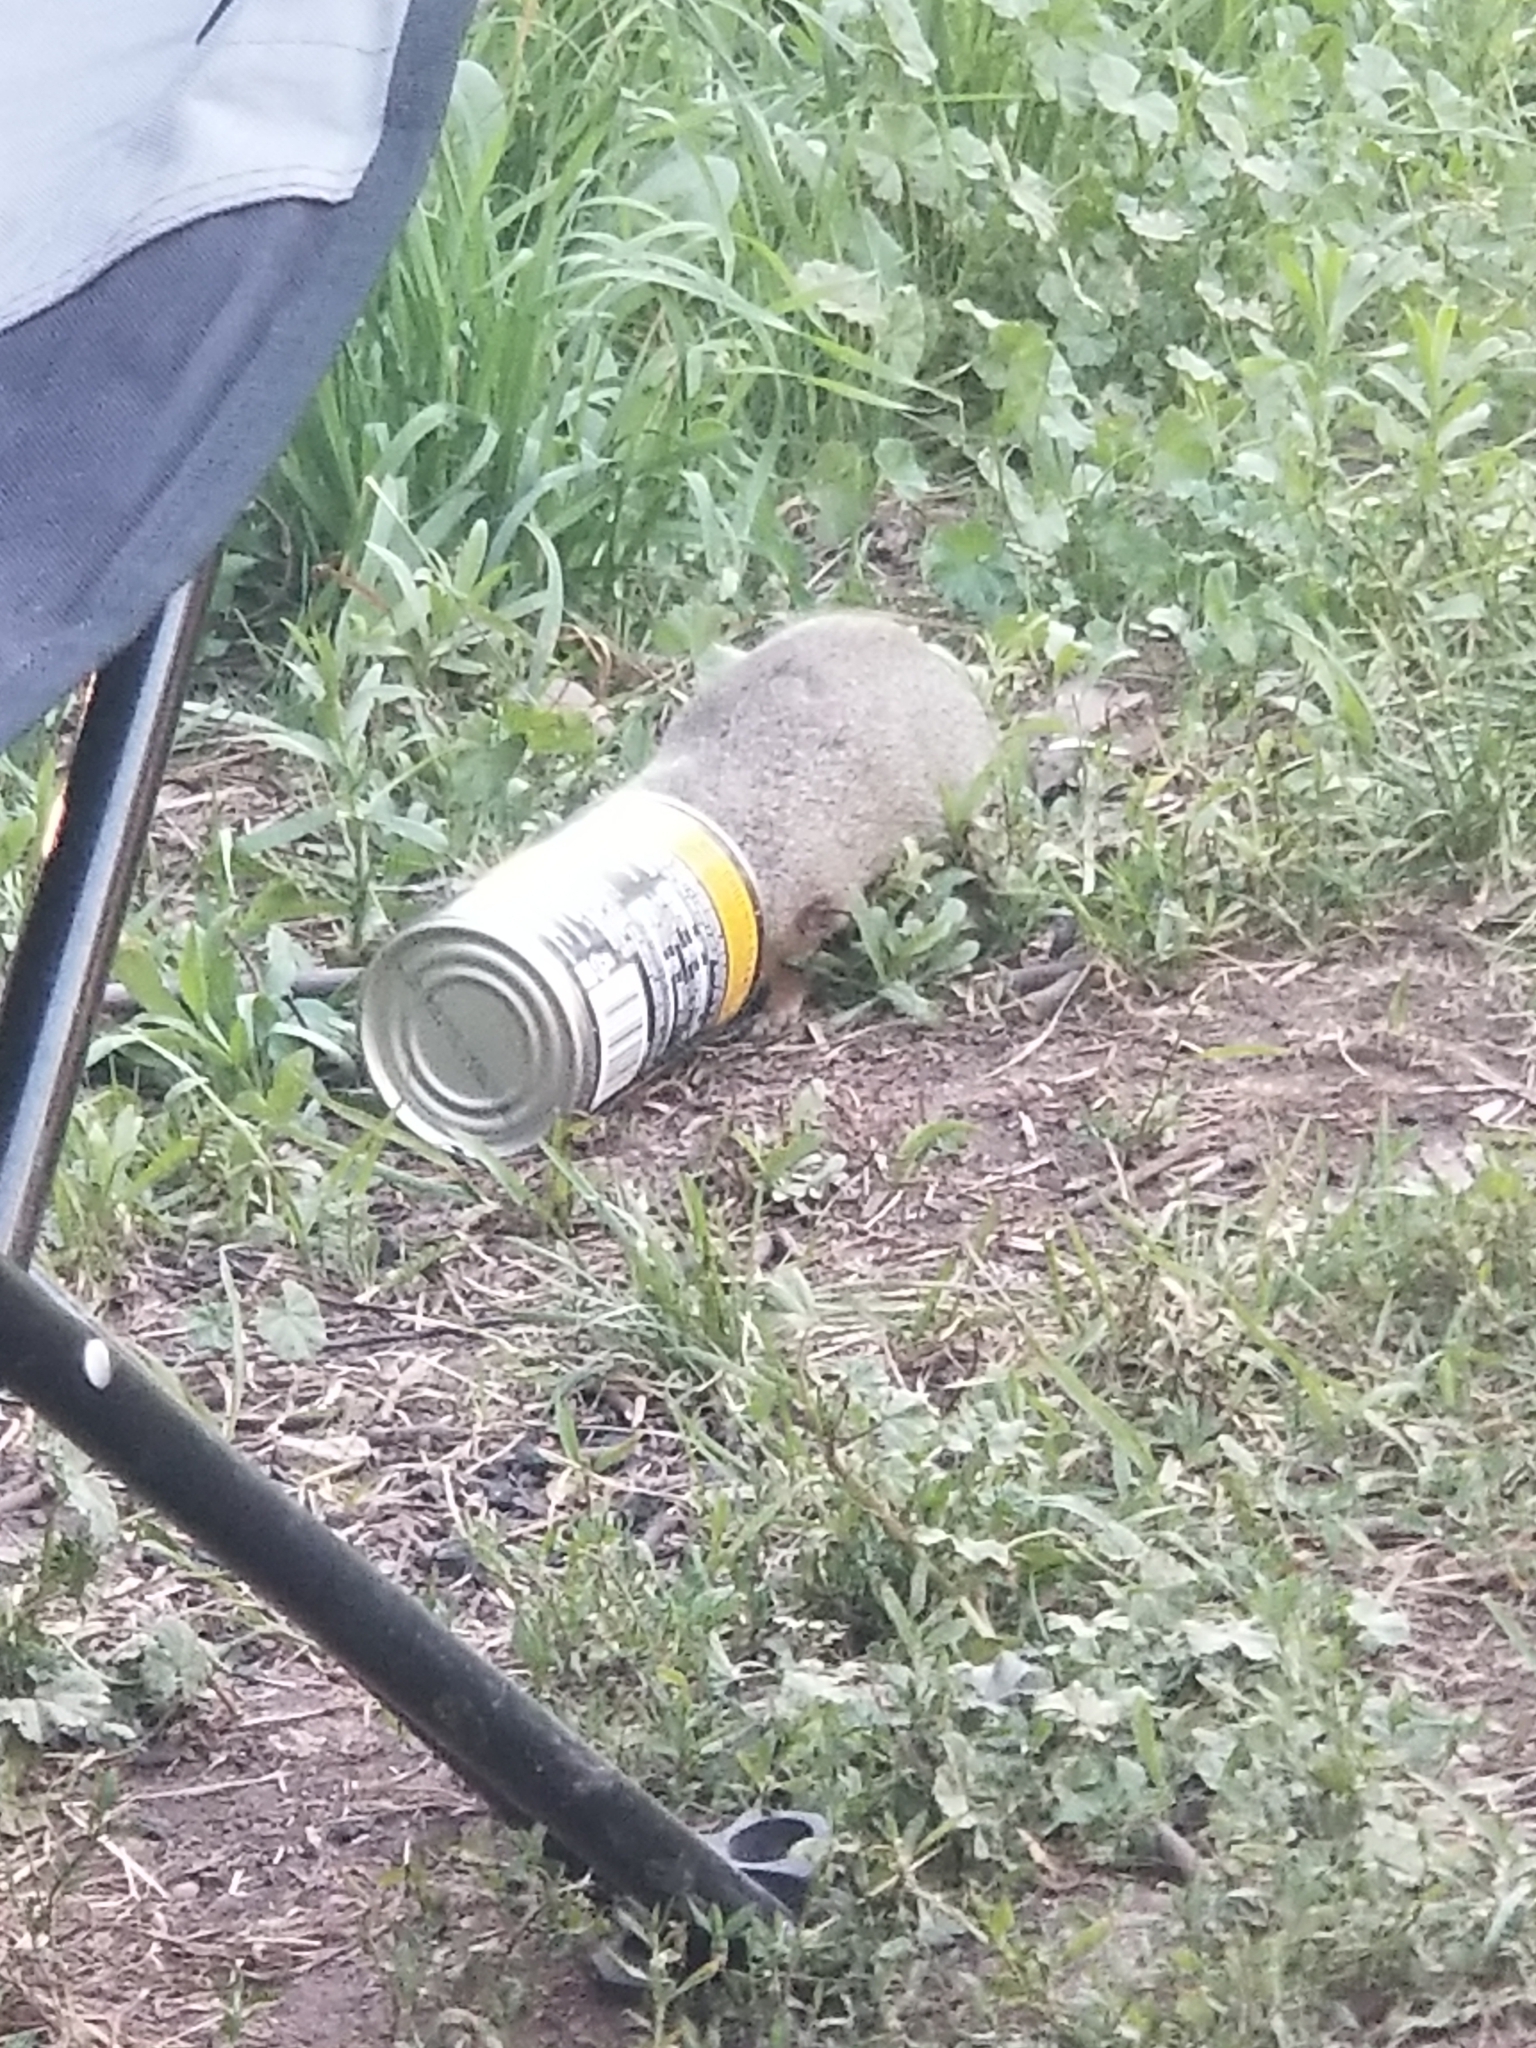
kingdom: Animalia
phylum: Chordata
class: Mammalia
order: Rodentia
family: Sciuridae
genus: Urocitellus
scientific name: Urocitellus armatus
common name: Uinta ground squirrel
